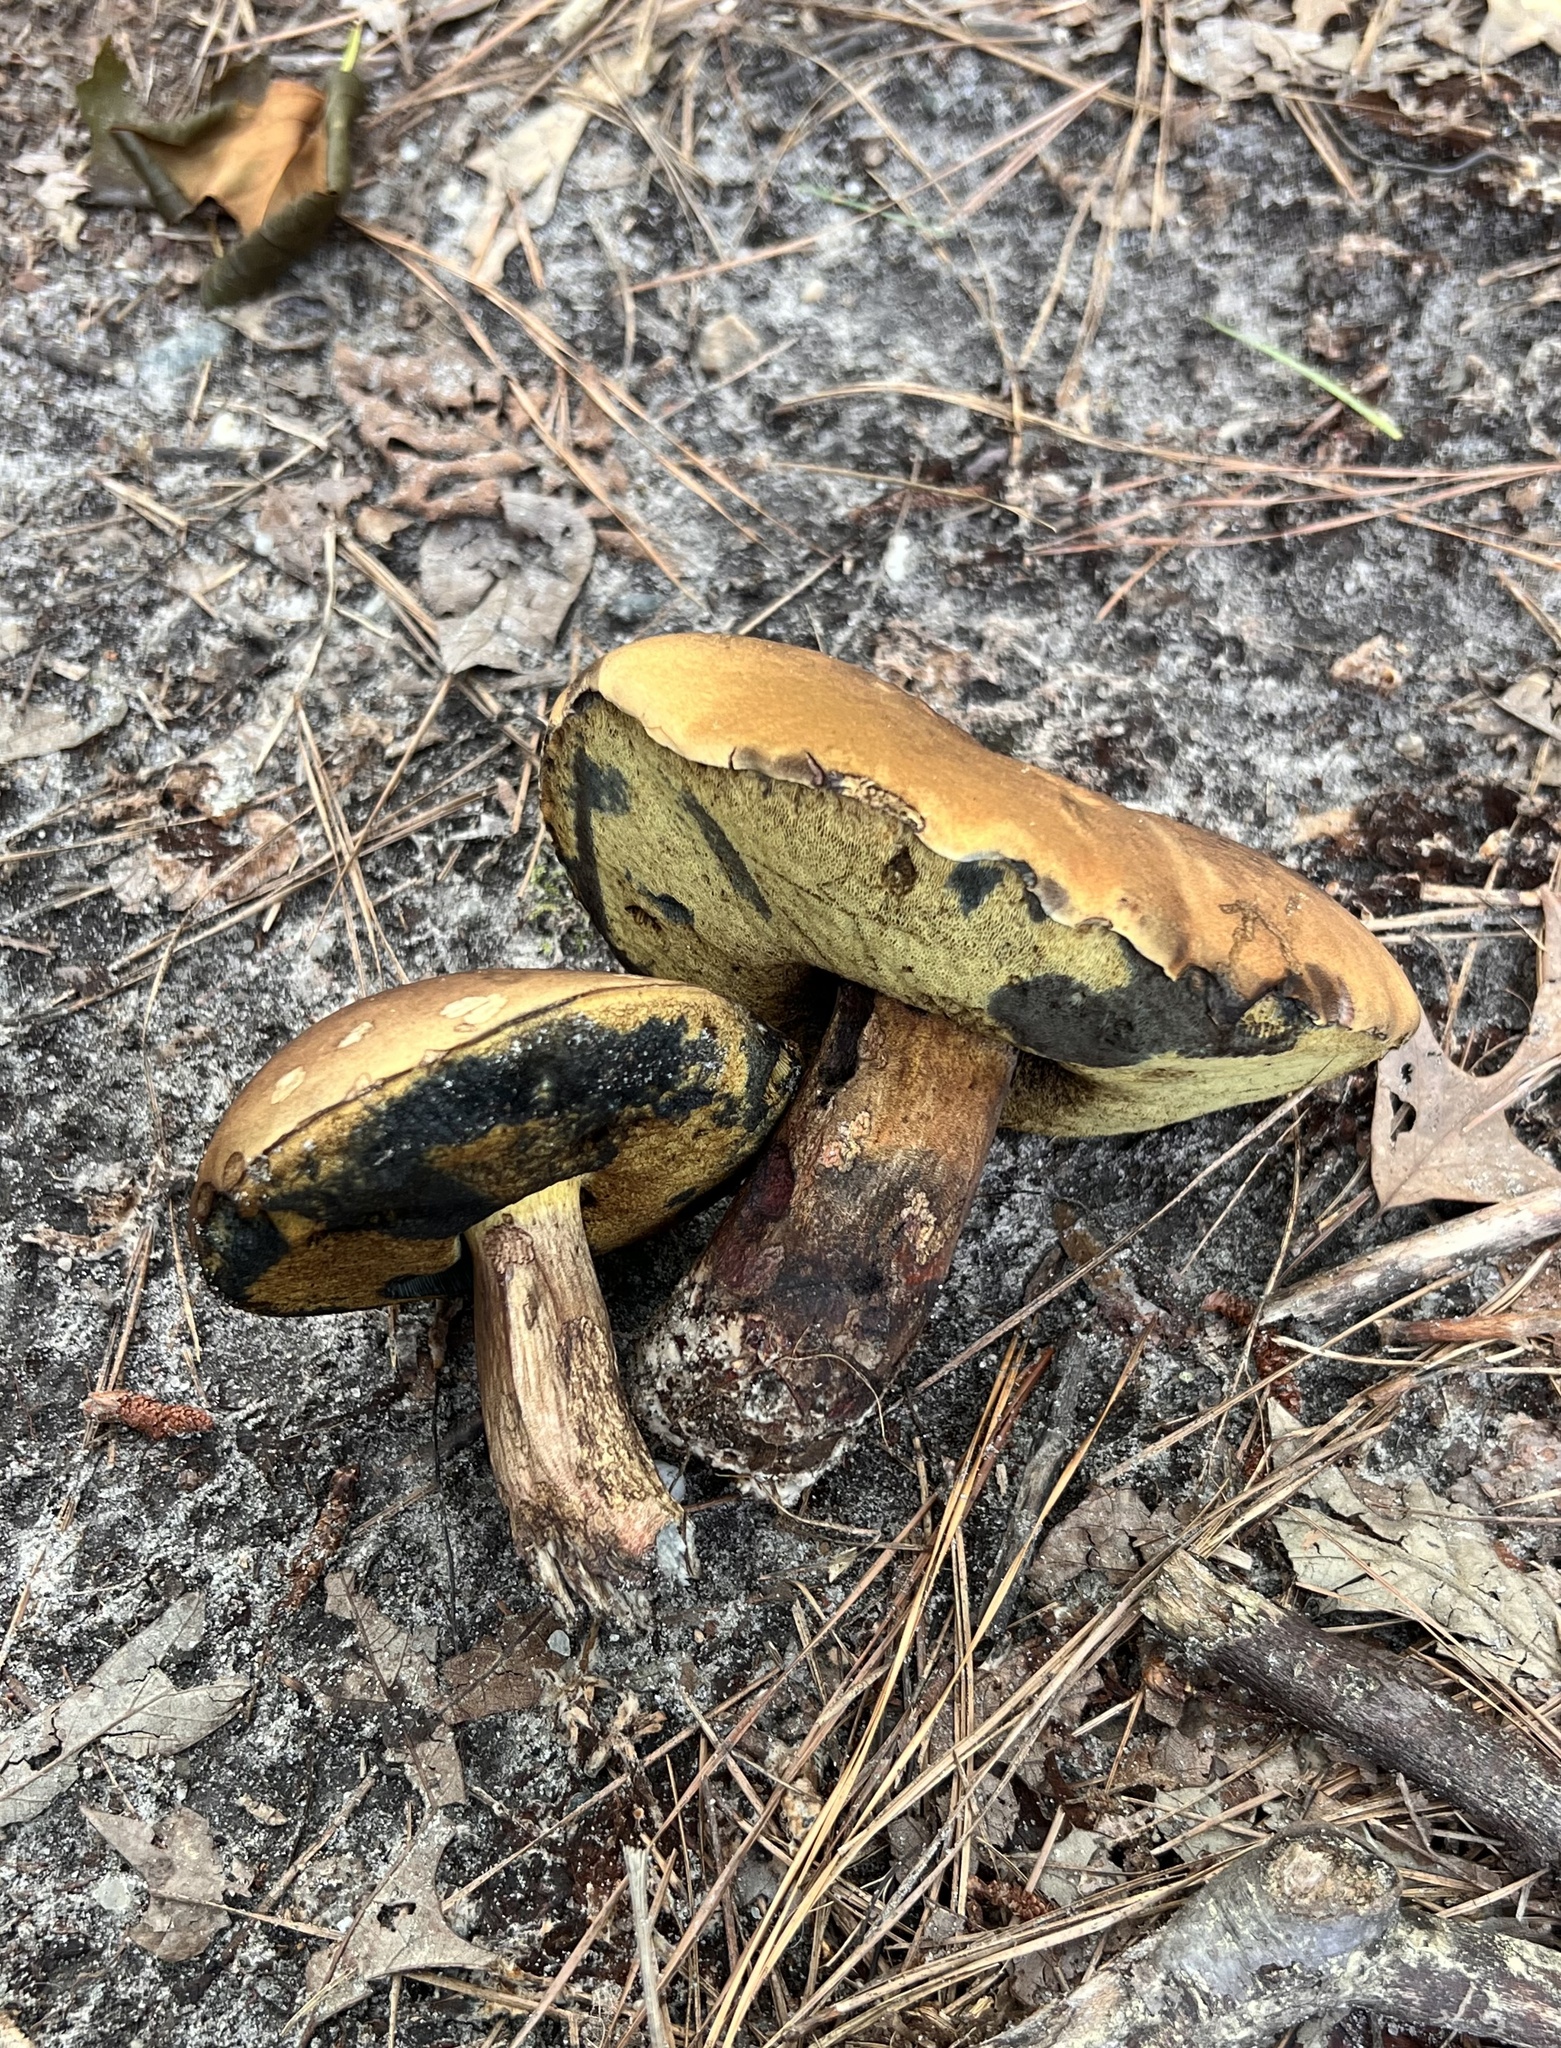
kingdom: Fungi
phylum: Basidiomycota
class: Agaricomycetes
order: Boletales
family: Boletaceae
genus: Boletus
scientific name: Boletus
